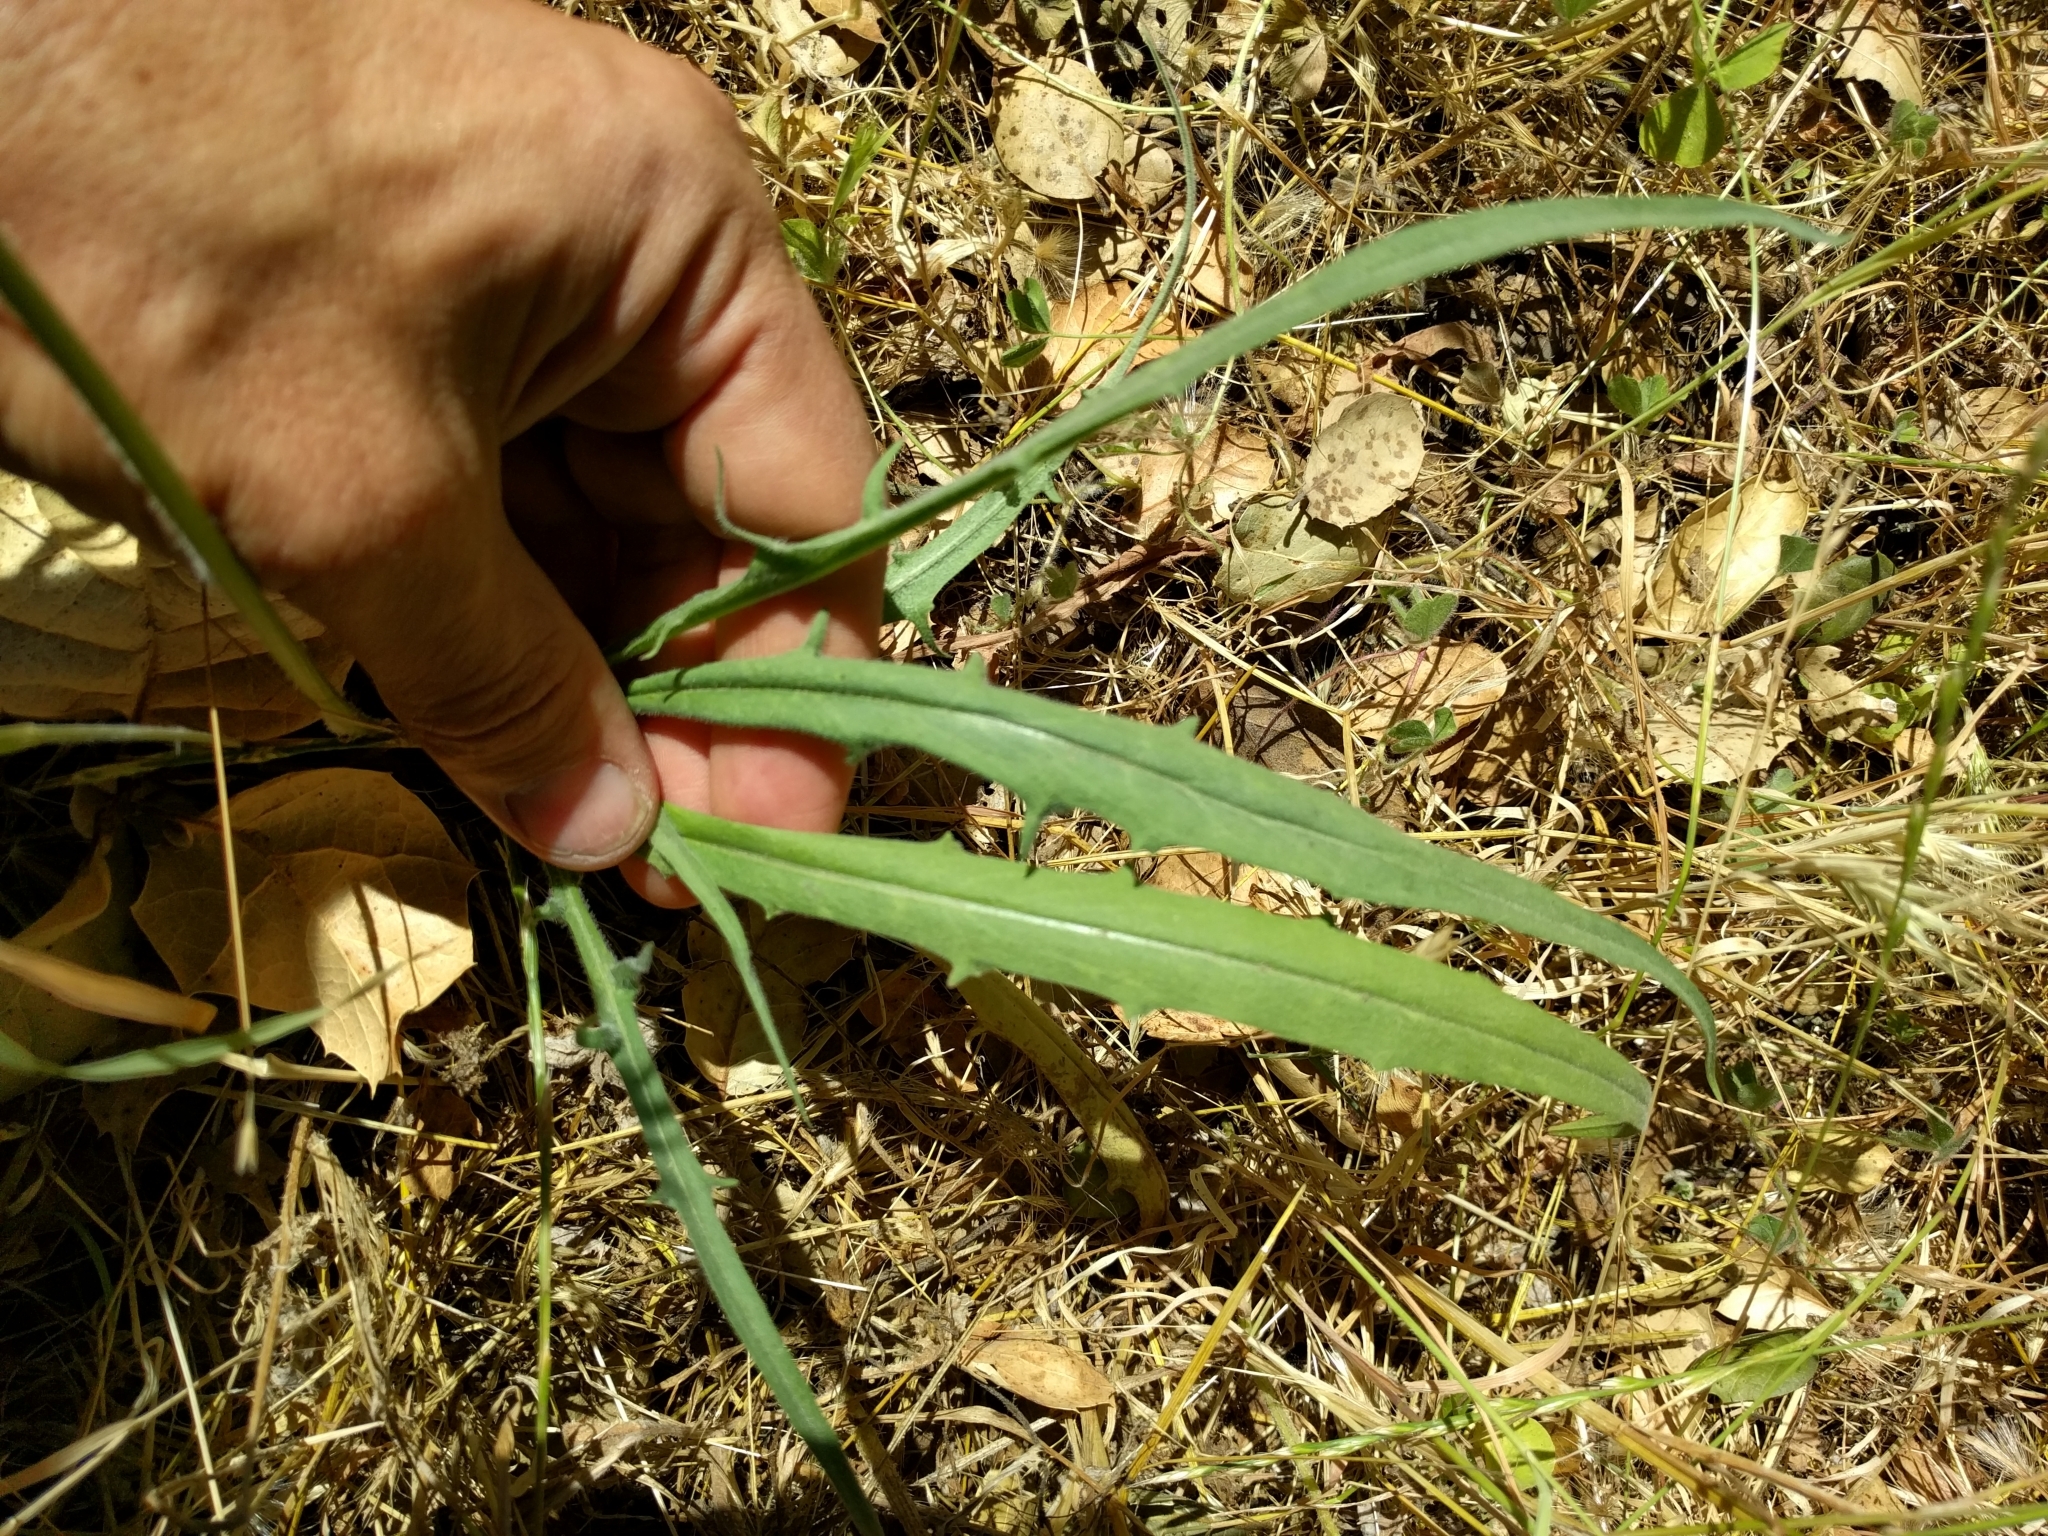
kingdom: Plantae
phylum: Tracheophyta
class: Magnoliopsida
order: Asterales
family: Asteraceae
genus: Agoseris
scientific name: Agoseris grandiflora
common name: Grassland agoseris
